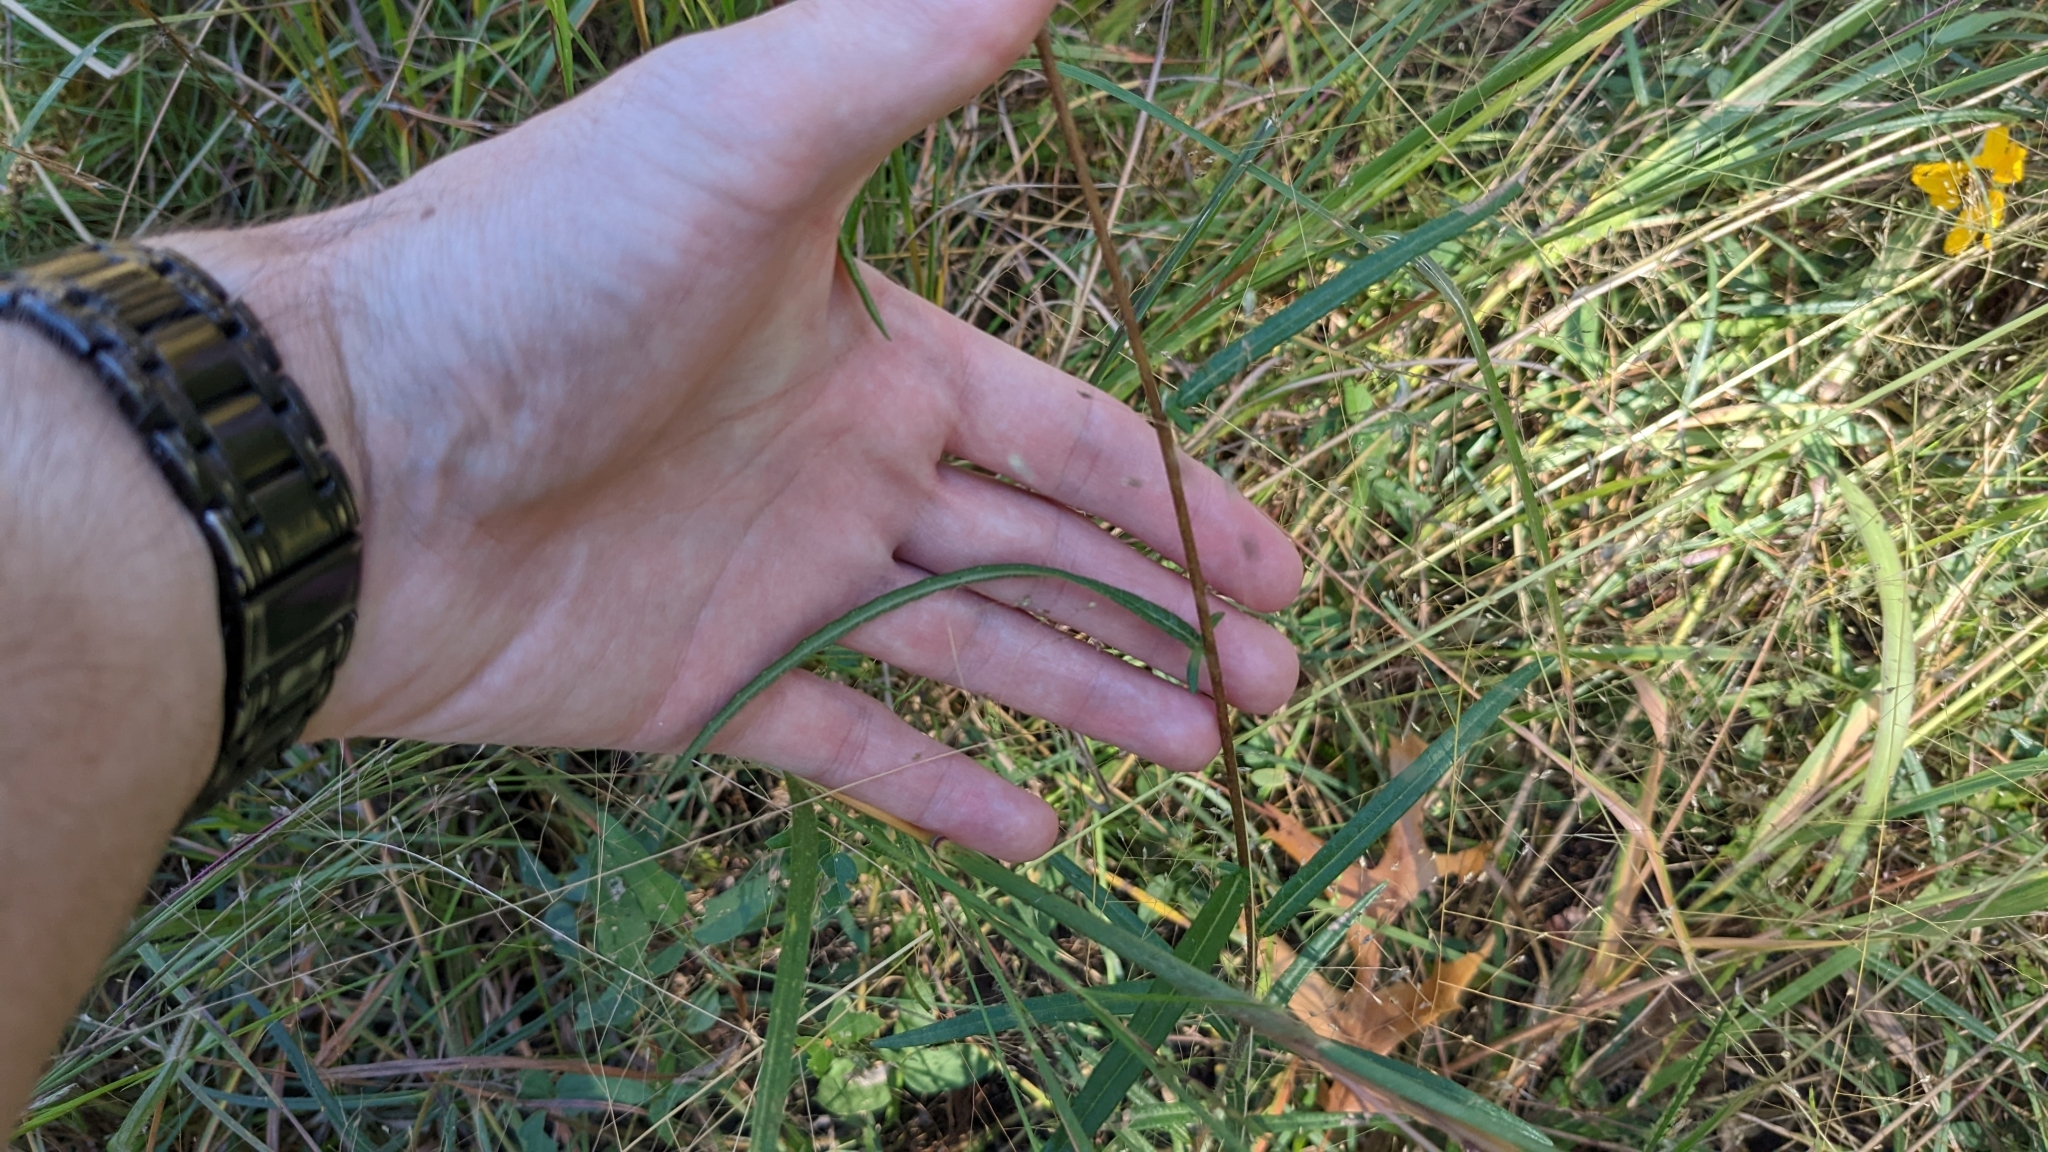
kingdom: Plantae
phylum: Tracheophyta
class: Magnoliopsida
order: Asterales
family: Asteraceae
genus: Helianthus
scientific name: Helianthus angustifolius
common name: Swamp sunflower
